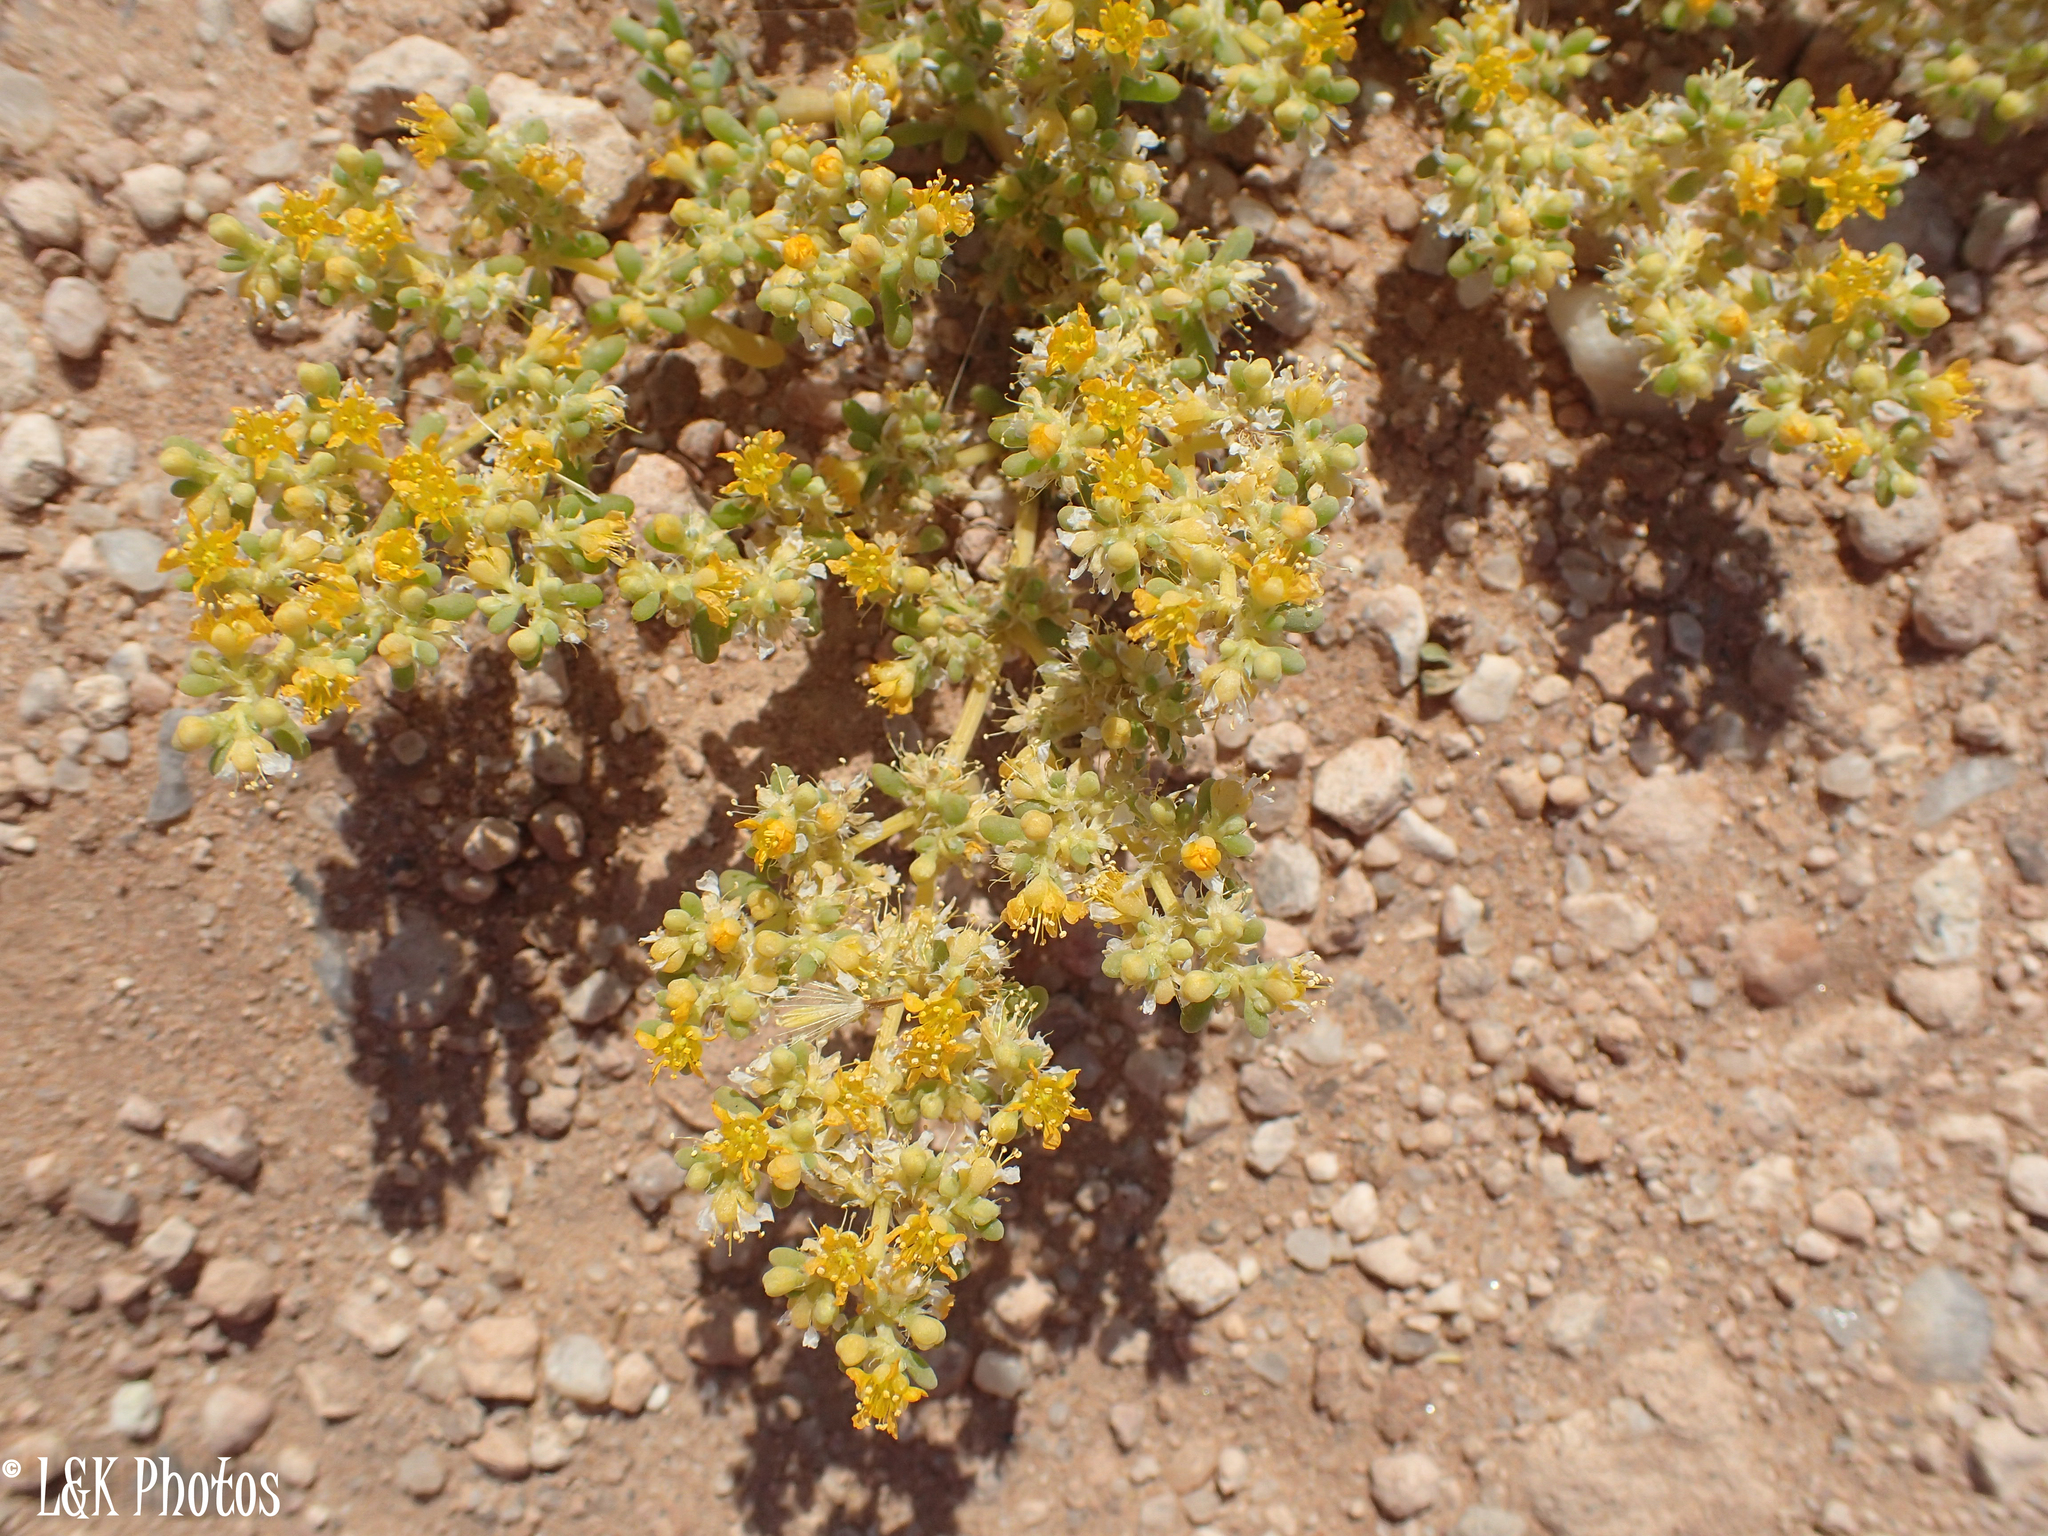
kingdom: Plantae
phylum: Tracheophyta
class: Magnoliopsida
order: Zygophyllales
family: Zygophyllaceae
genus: Tetraena
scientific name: Tetraena simplex
